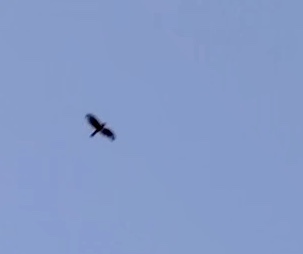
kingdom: Animalia
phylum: Chordata
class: Aves
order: Accipitriformes
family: Accipitridae
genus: Buteo
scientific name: Buteo lineatus
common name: Red-shouldered hawk
